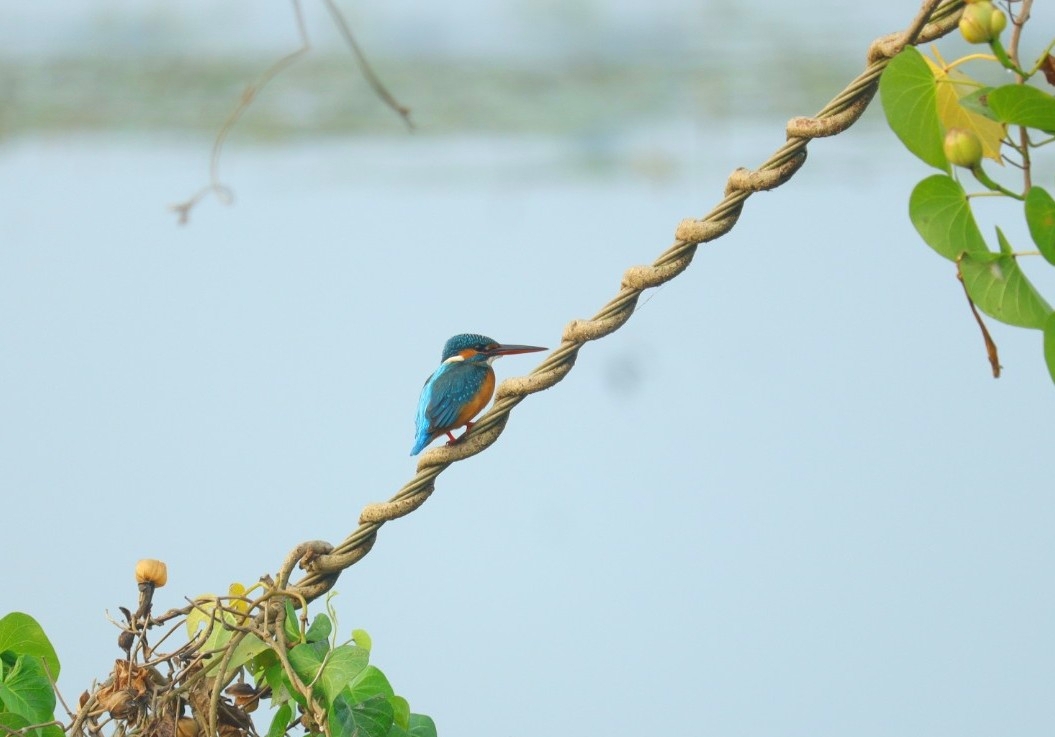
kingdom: Animalia
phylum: Chordata
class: Aves
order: Coraciiformes
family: Alcedinidae
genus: Alcedo
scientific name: Alcedo atthis
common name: Common kingfisher
